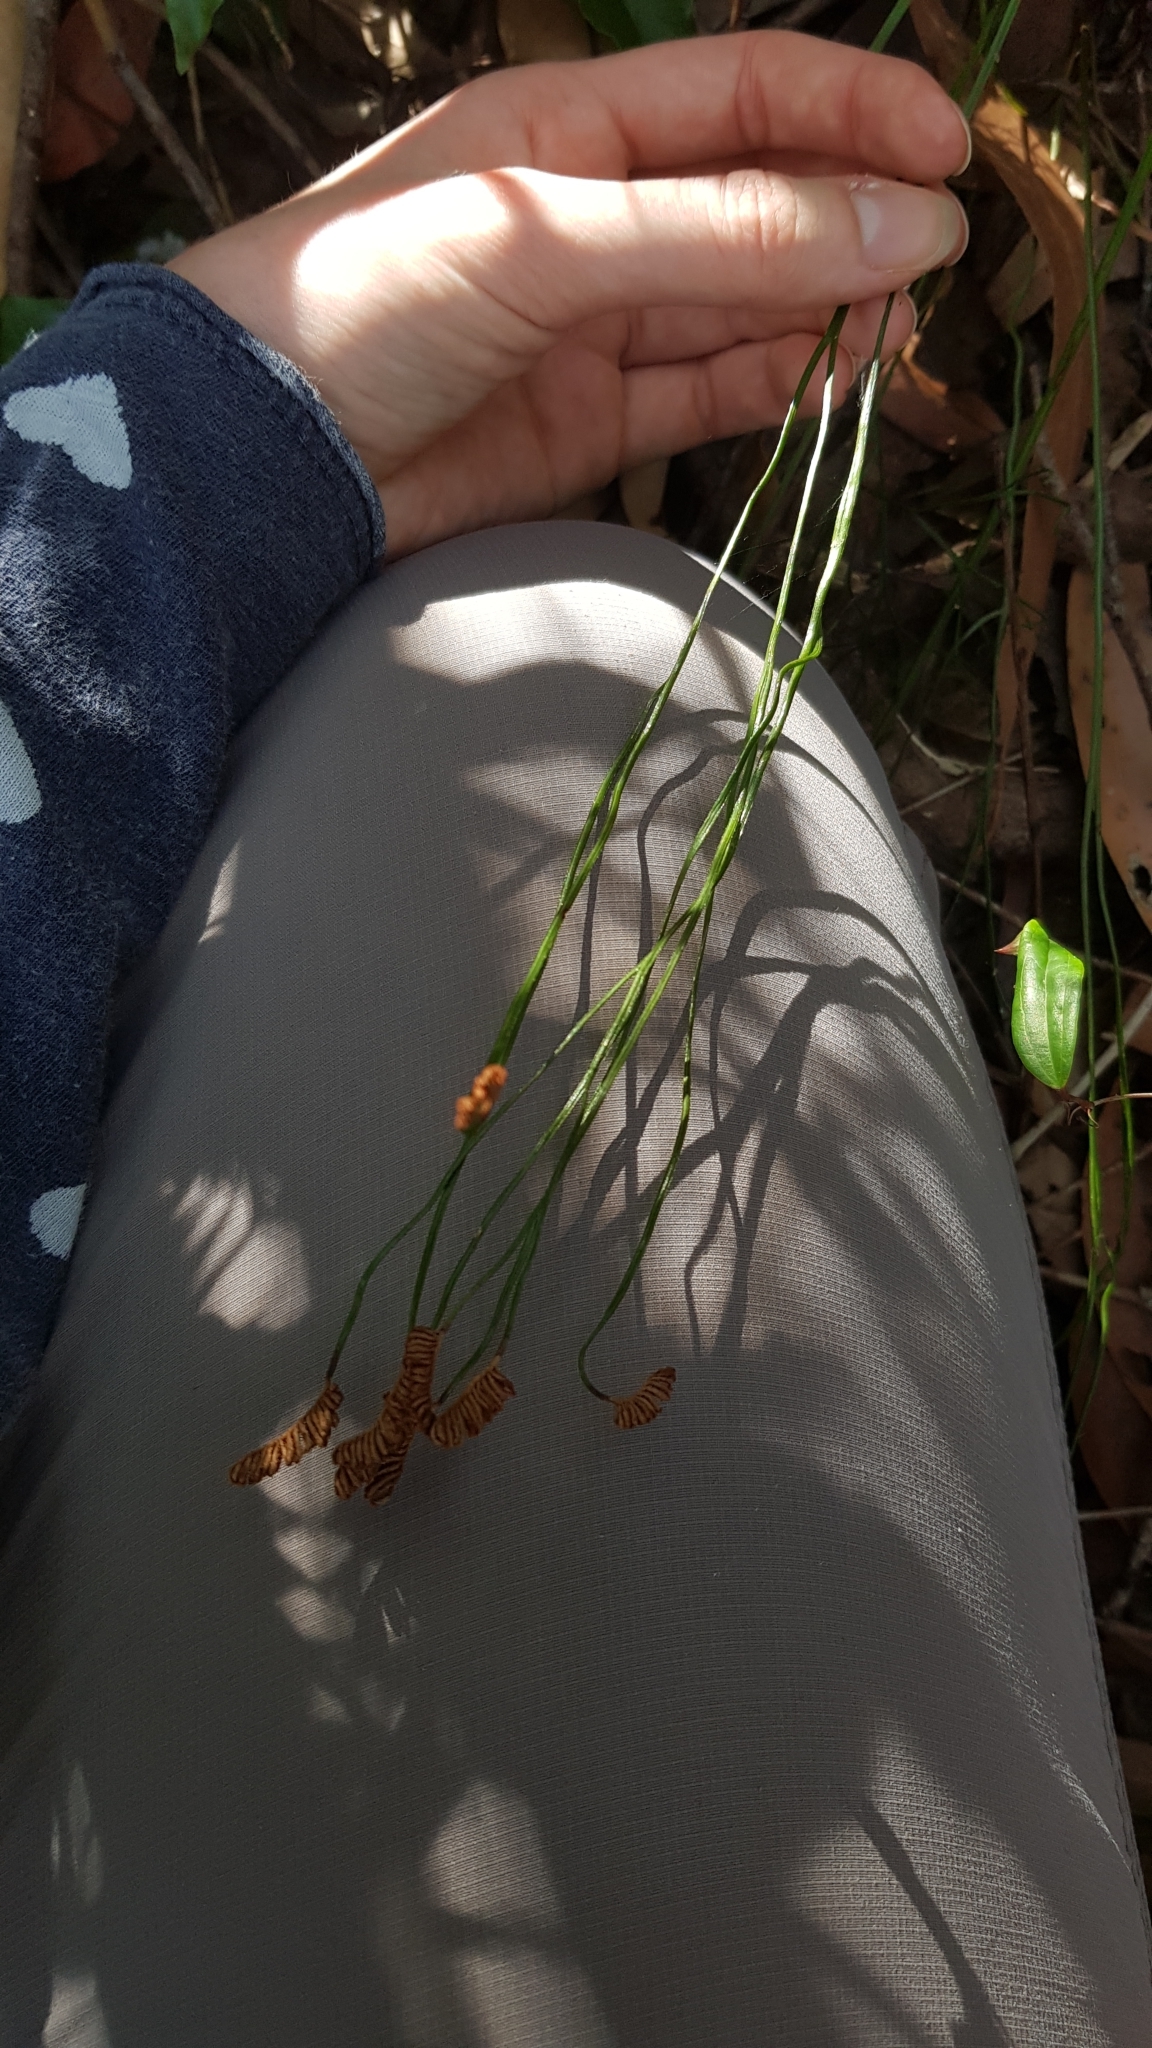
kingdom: Plantae
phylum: Tracheophyta
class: Polypodiopsida
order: Schizaeales
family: Schizaeaceae
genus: Schizaea
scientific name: Schizaea bifida
